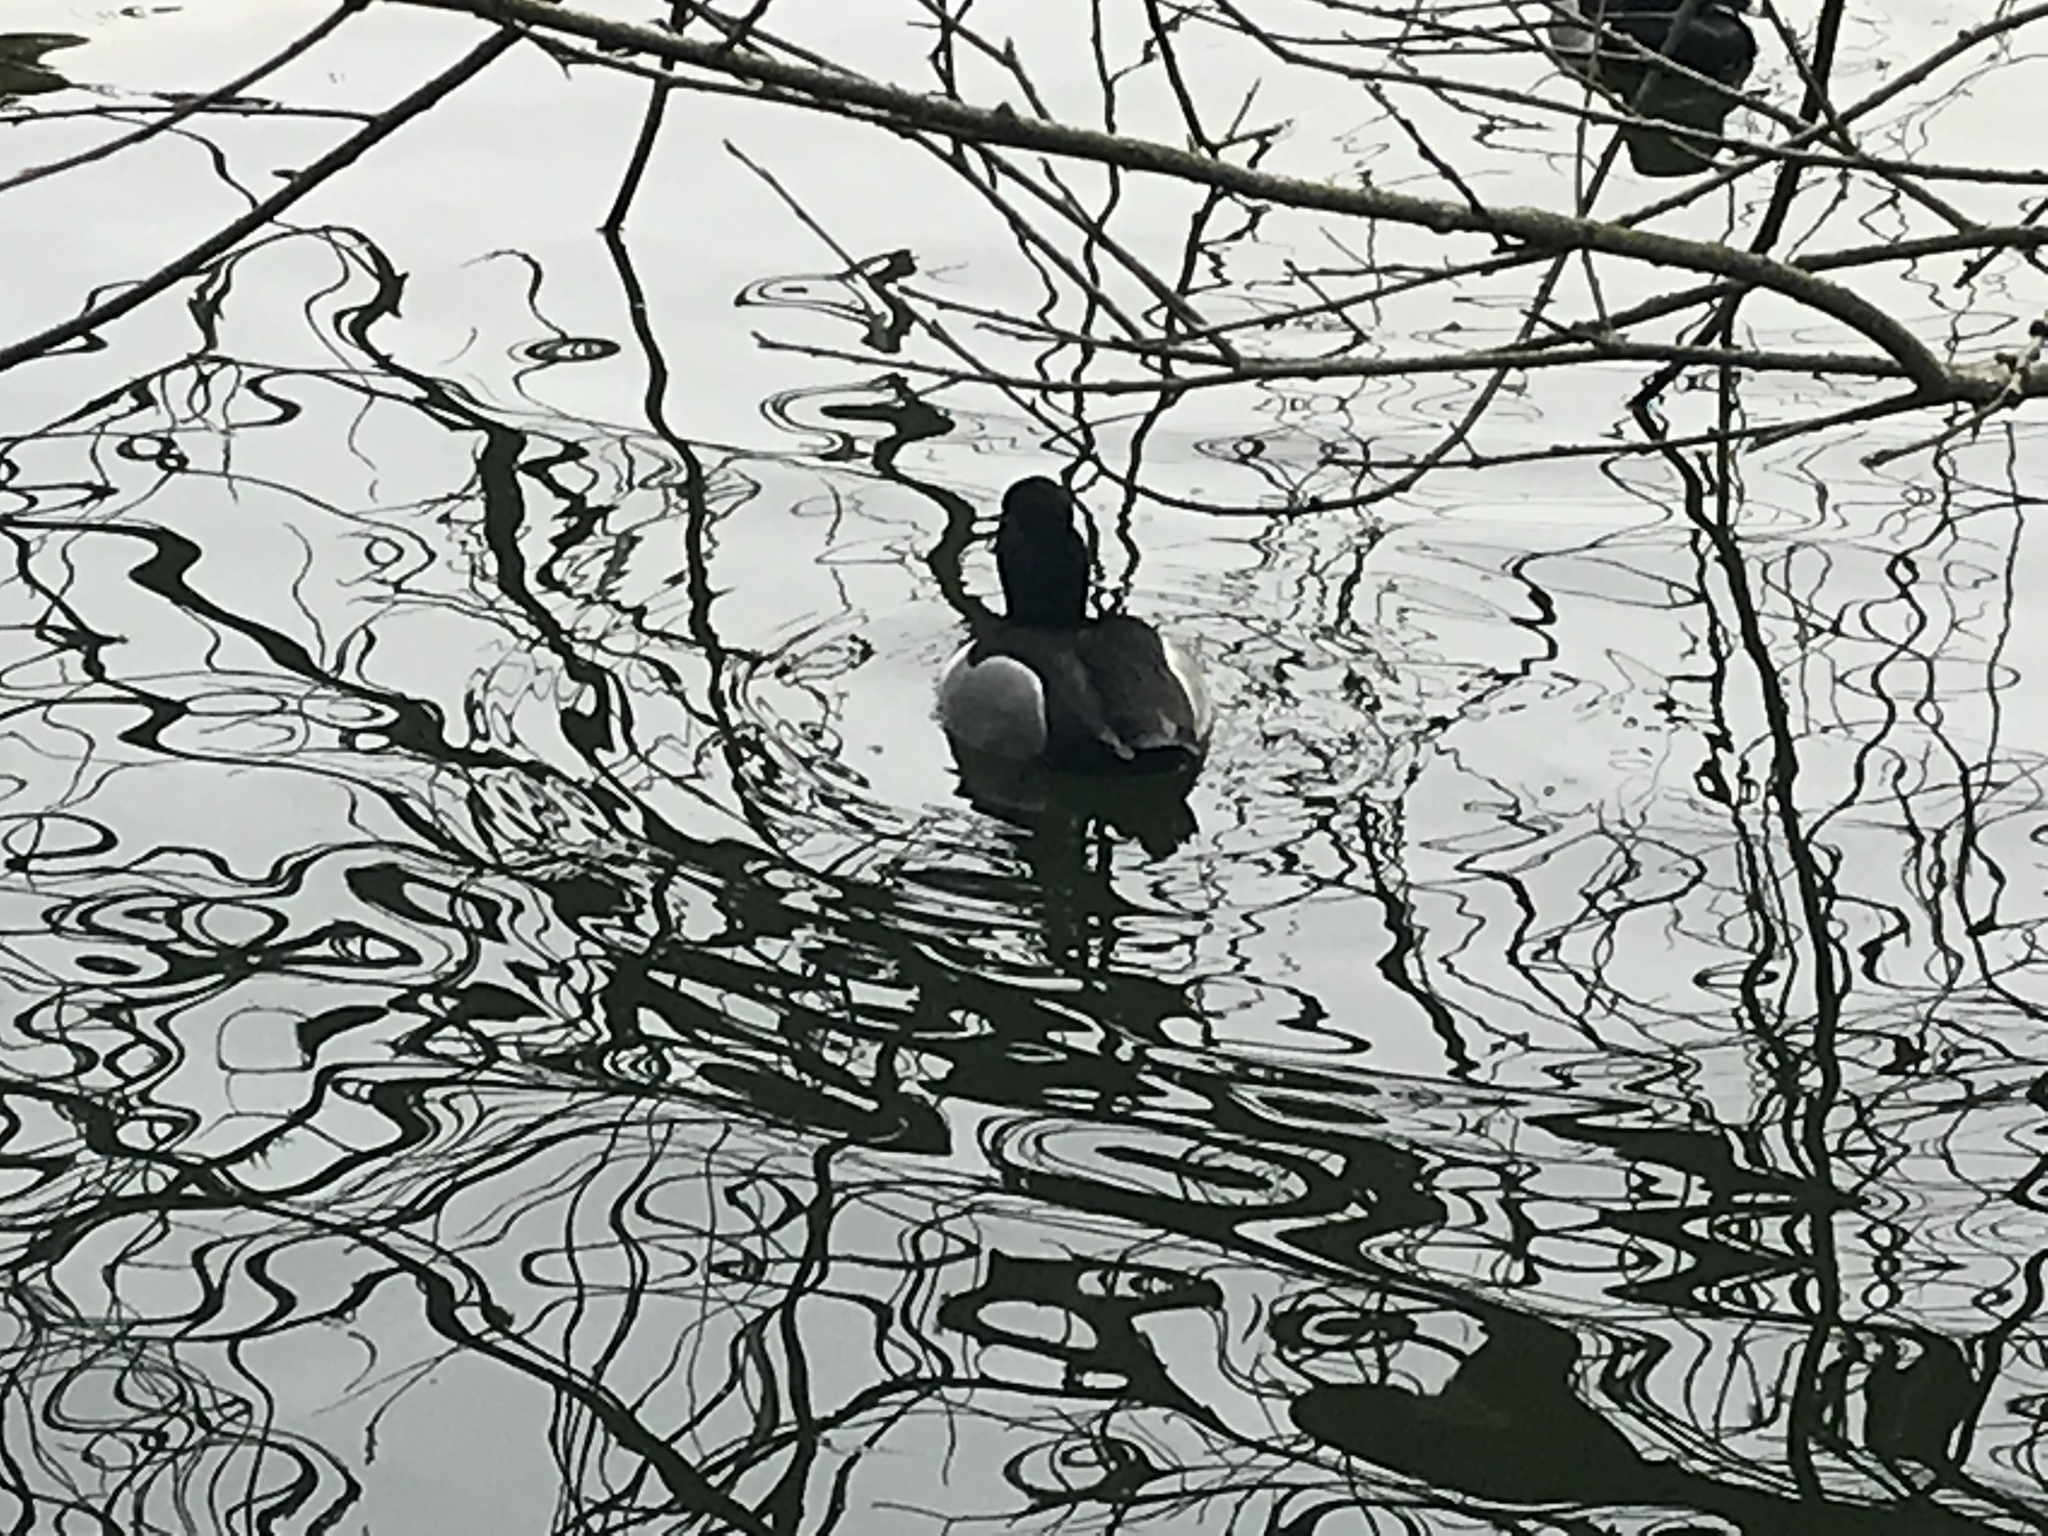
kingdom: Animalia
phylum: Chordata
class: Aves
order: Anseriformes
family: Anatidae
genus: Aythya
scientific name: Aythya collaris
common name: Ring-necked duck
